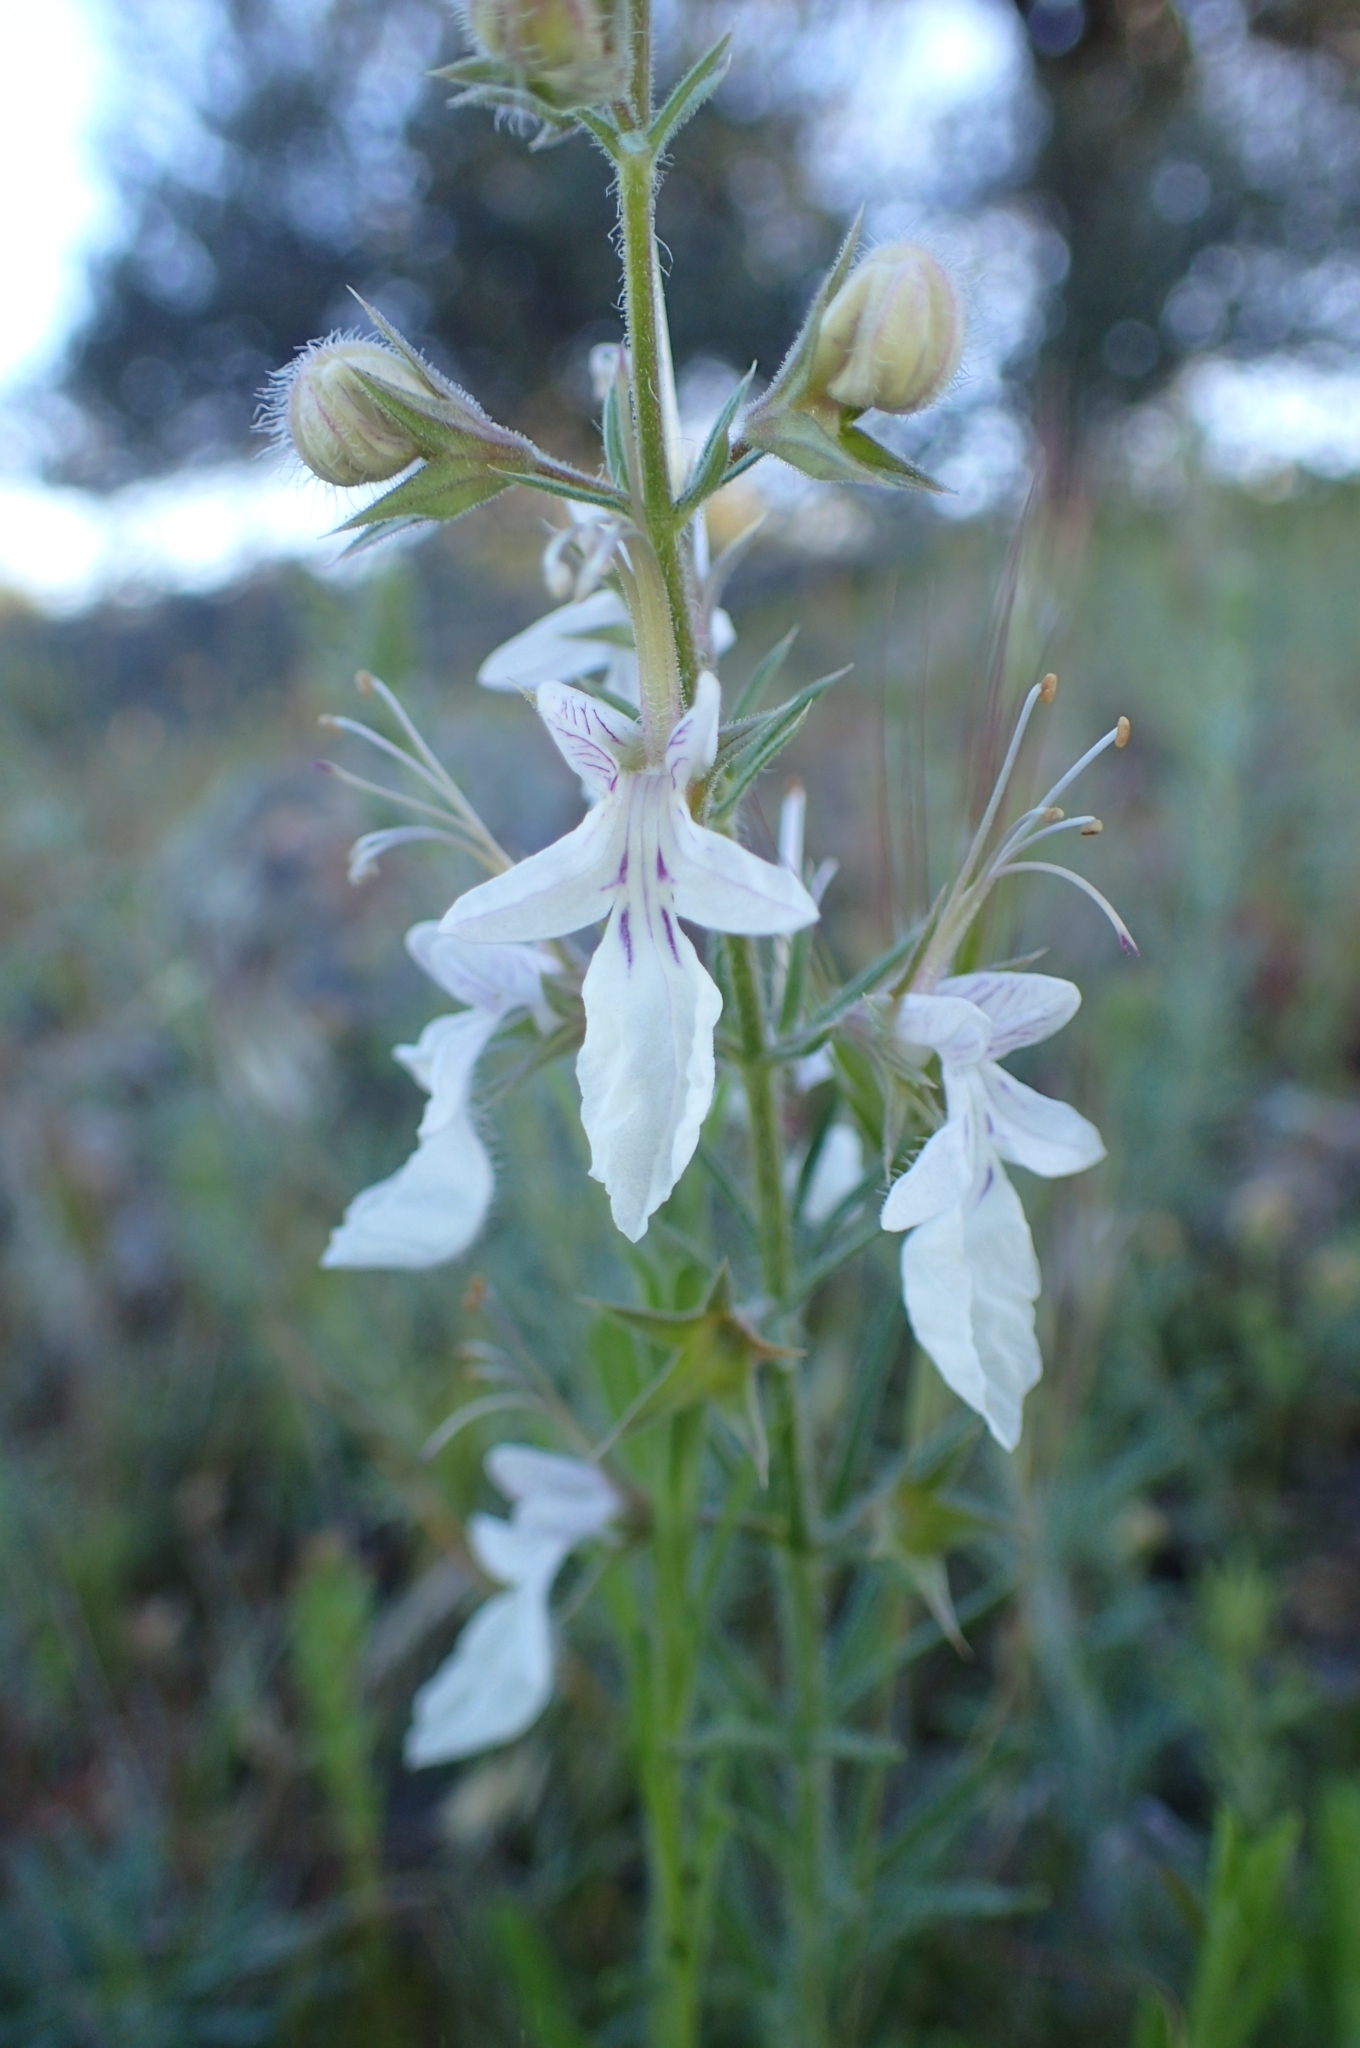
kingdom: Plantae
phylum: Tracheophyta
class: Magnoliopsida
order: Lamiales
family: Lamiaceae
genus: Teucrium
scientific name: Teucrium pseudochamaepitys
